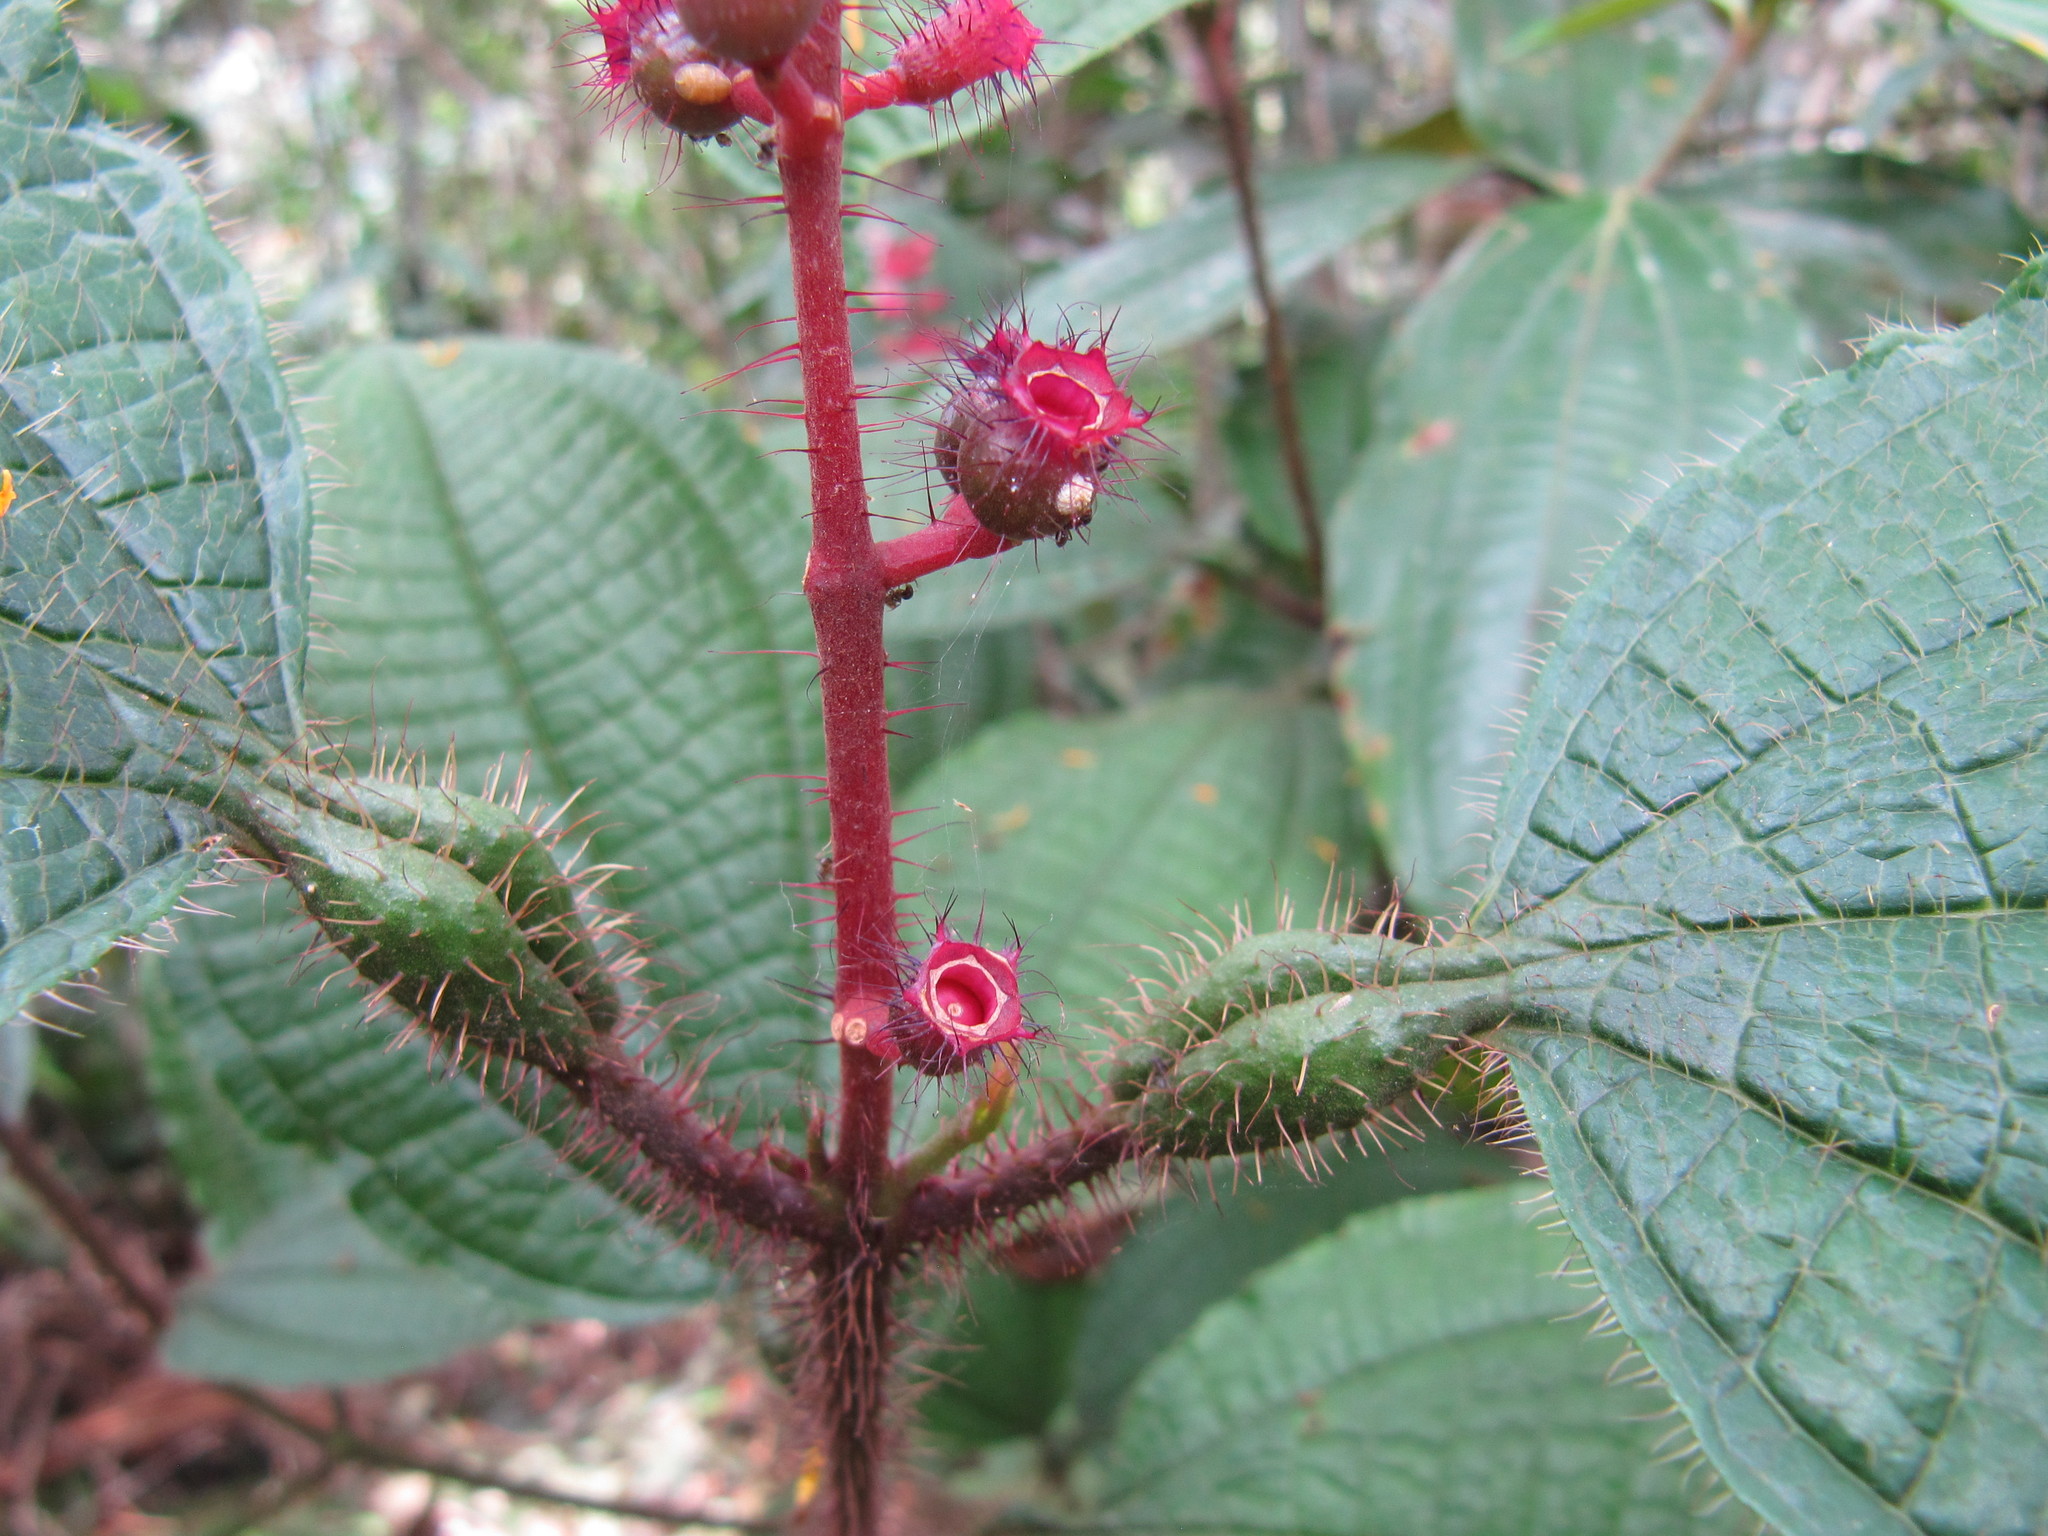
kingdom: Plantae
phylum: Tracheophyta
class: Magnoliopsida
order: Myrtales
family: Melastomataceae
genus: Miconia
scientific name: Miconia tococa
